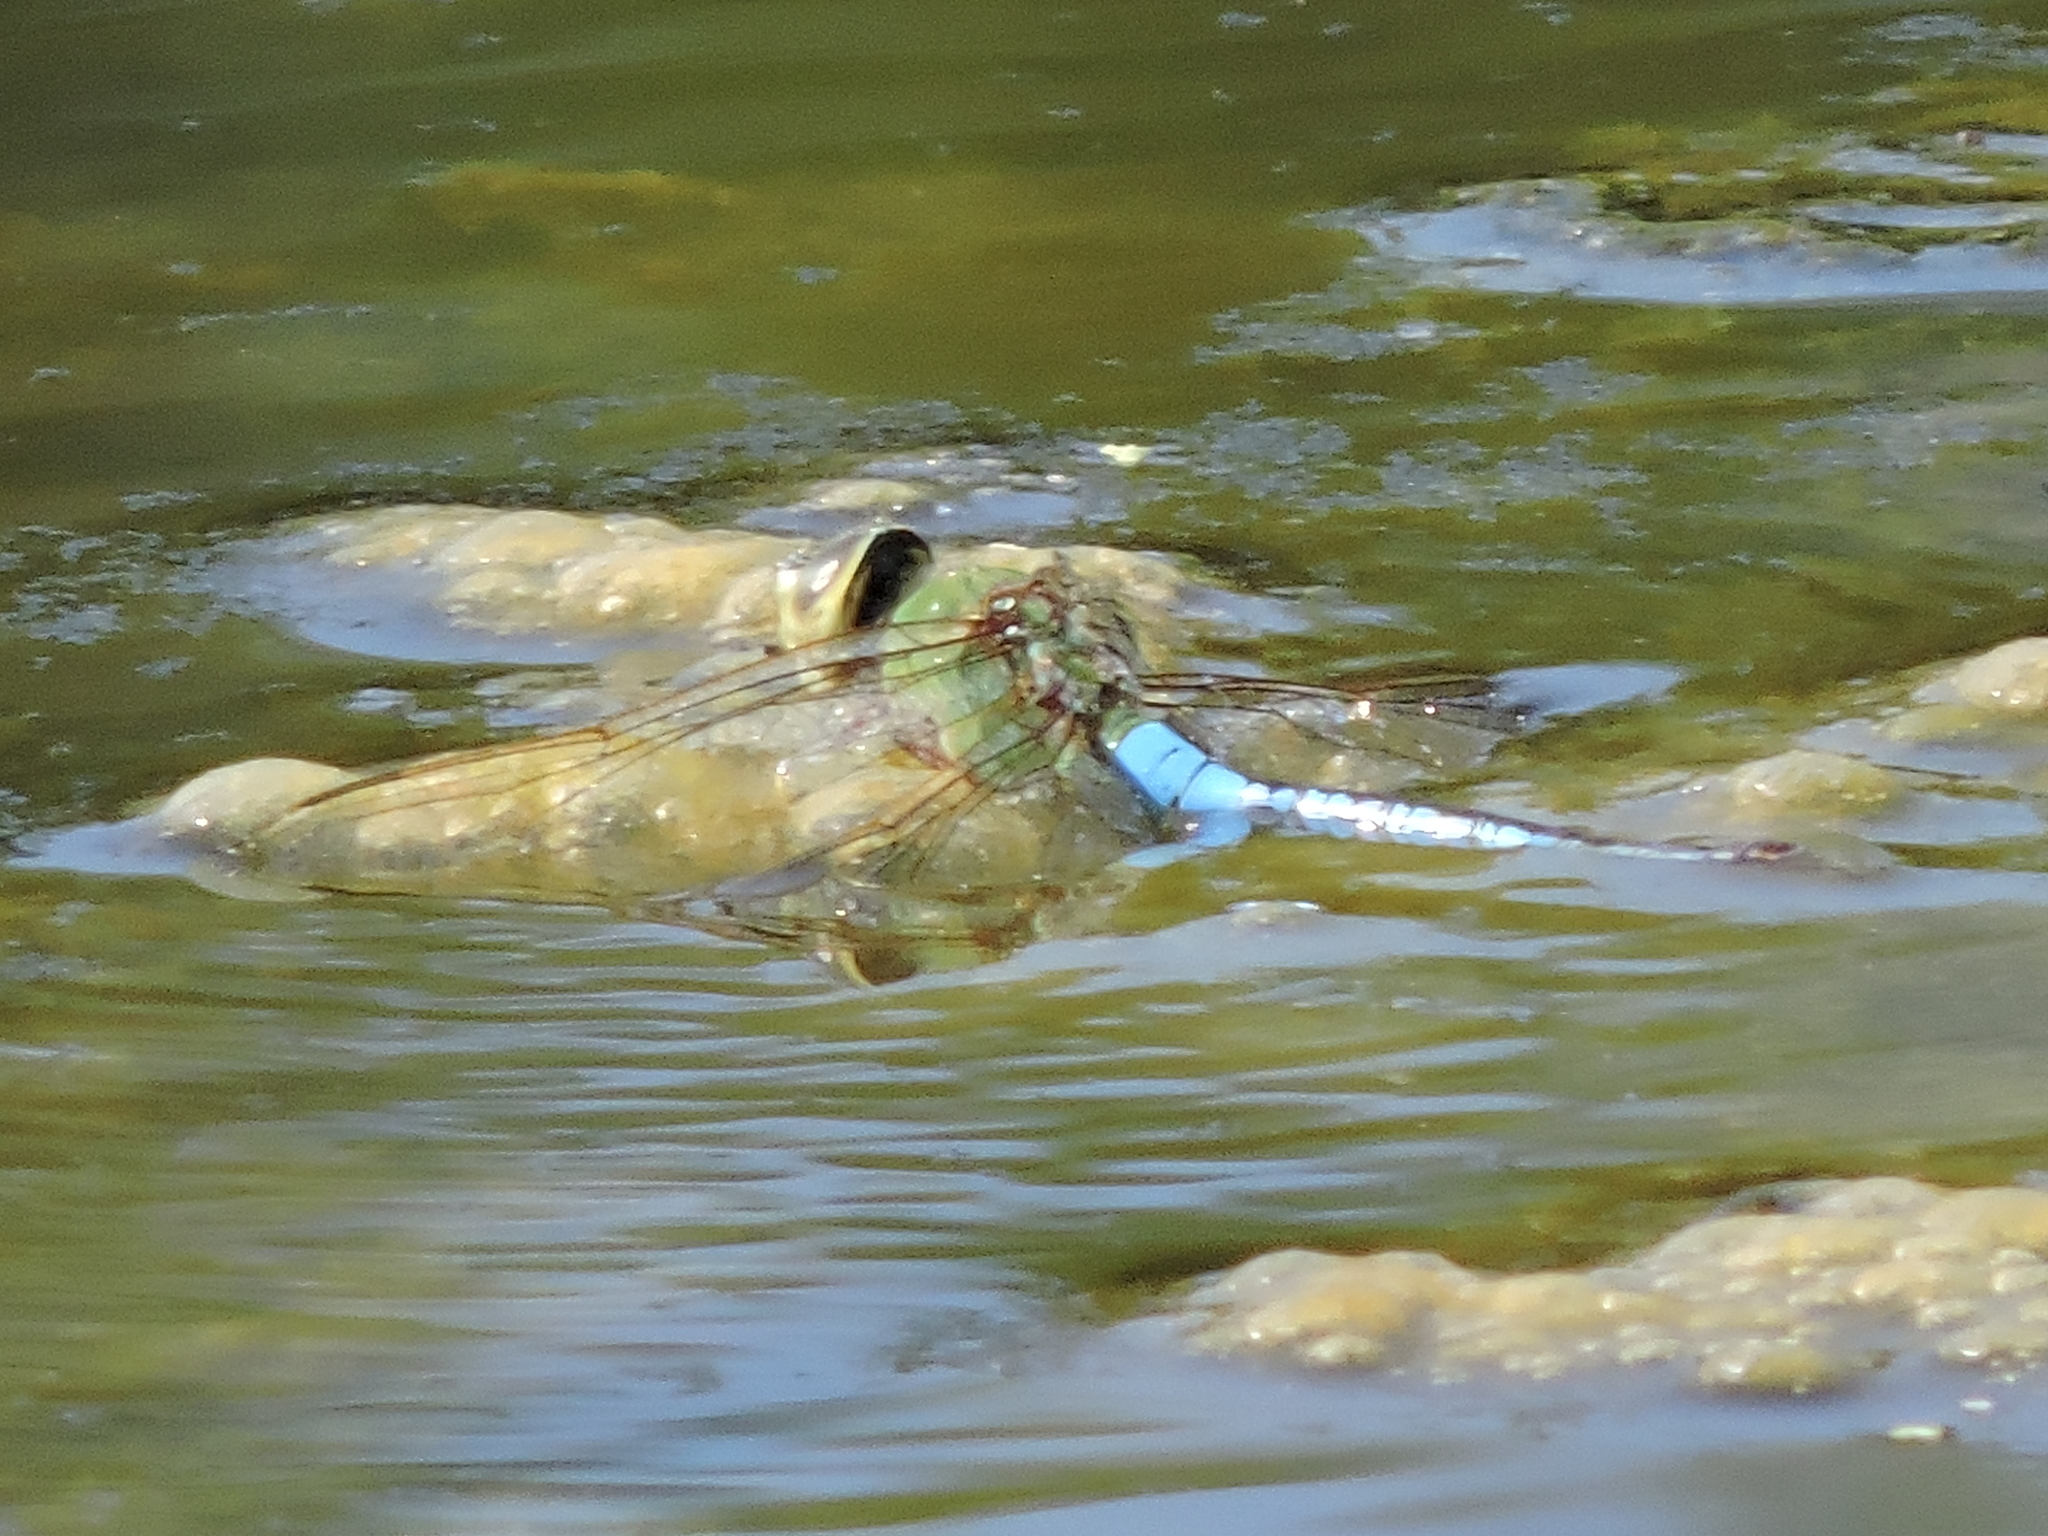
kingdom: Animalia
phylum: Arthropoda
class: Insecta
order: Odonata
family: Aeshnidae
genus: Anax
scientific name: Anax junius
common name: Common green darner
